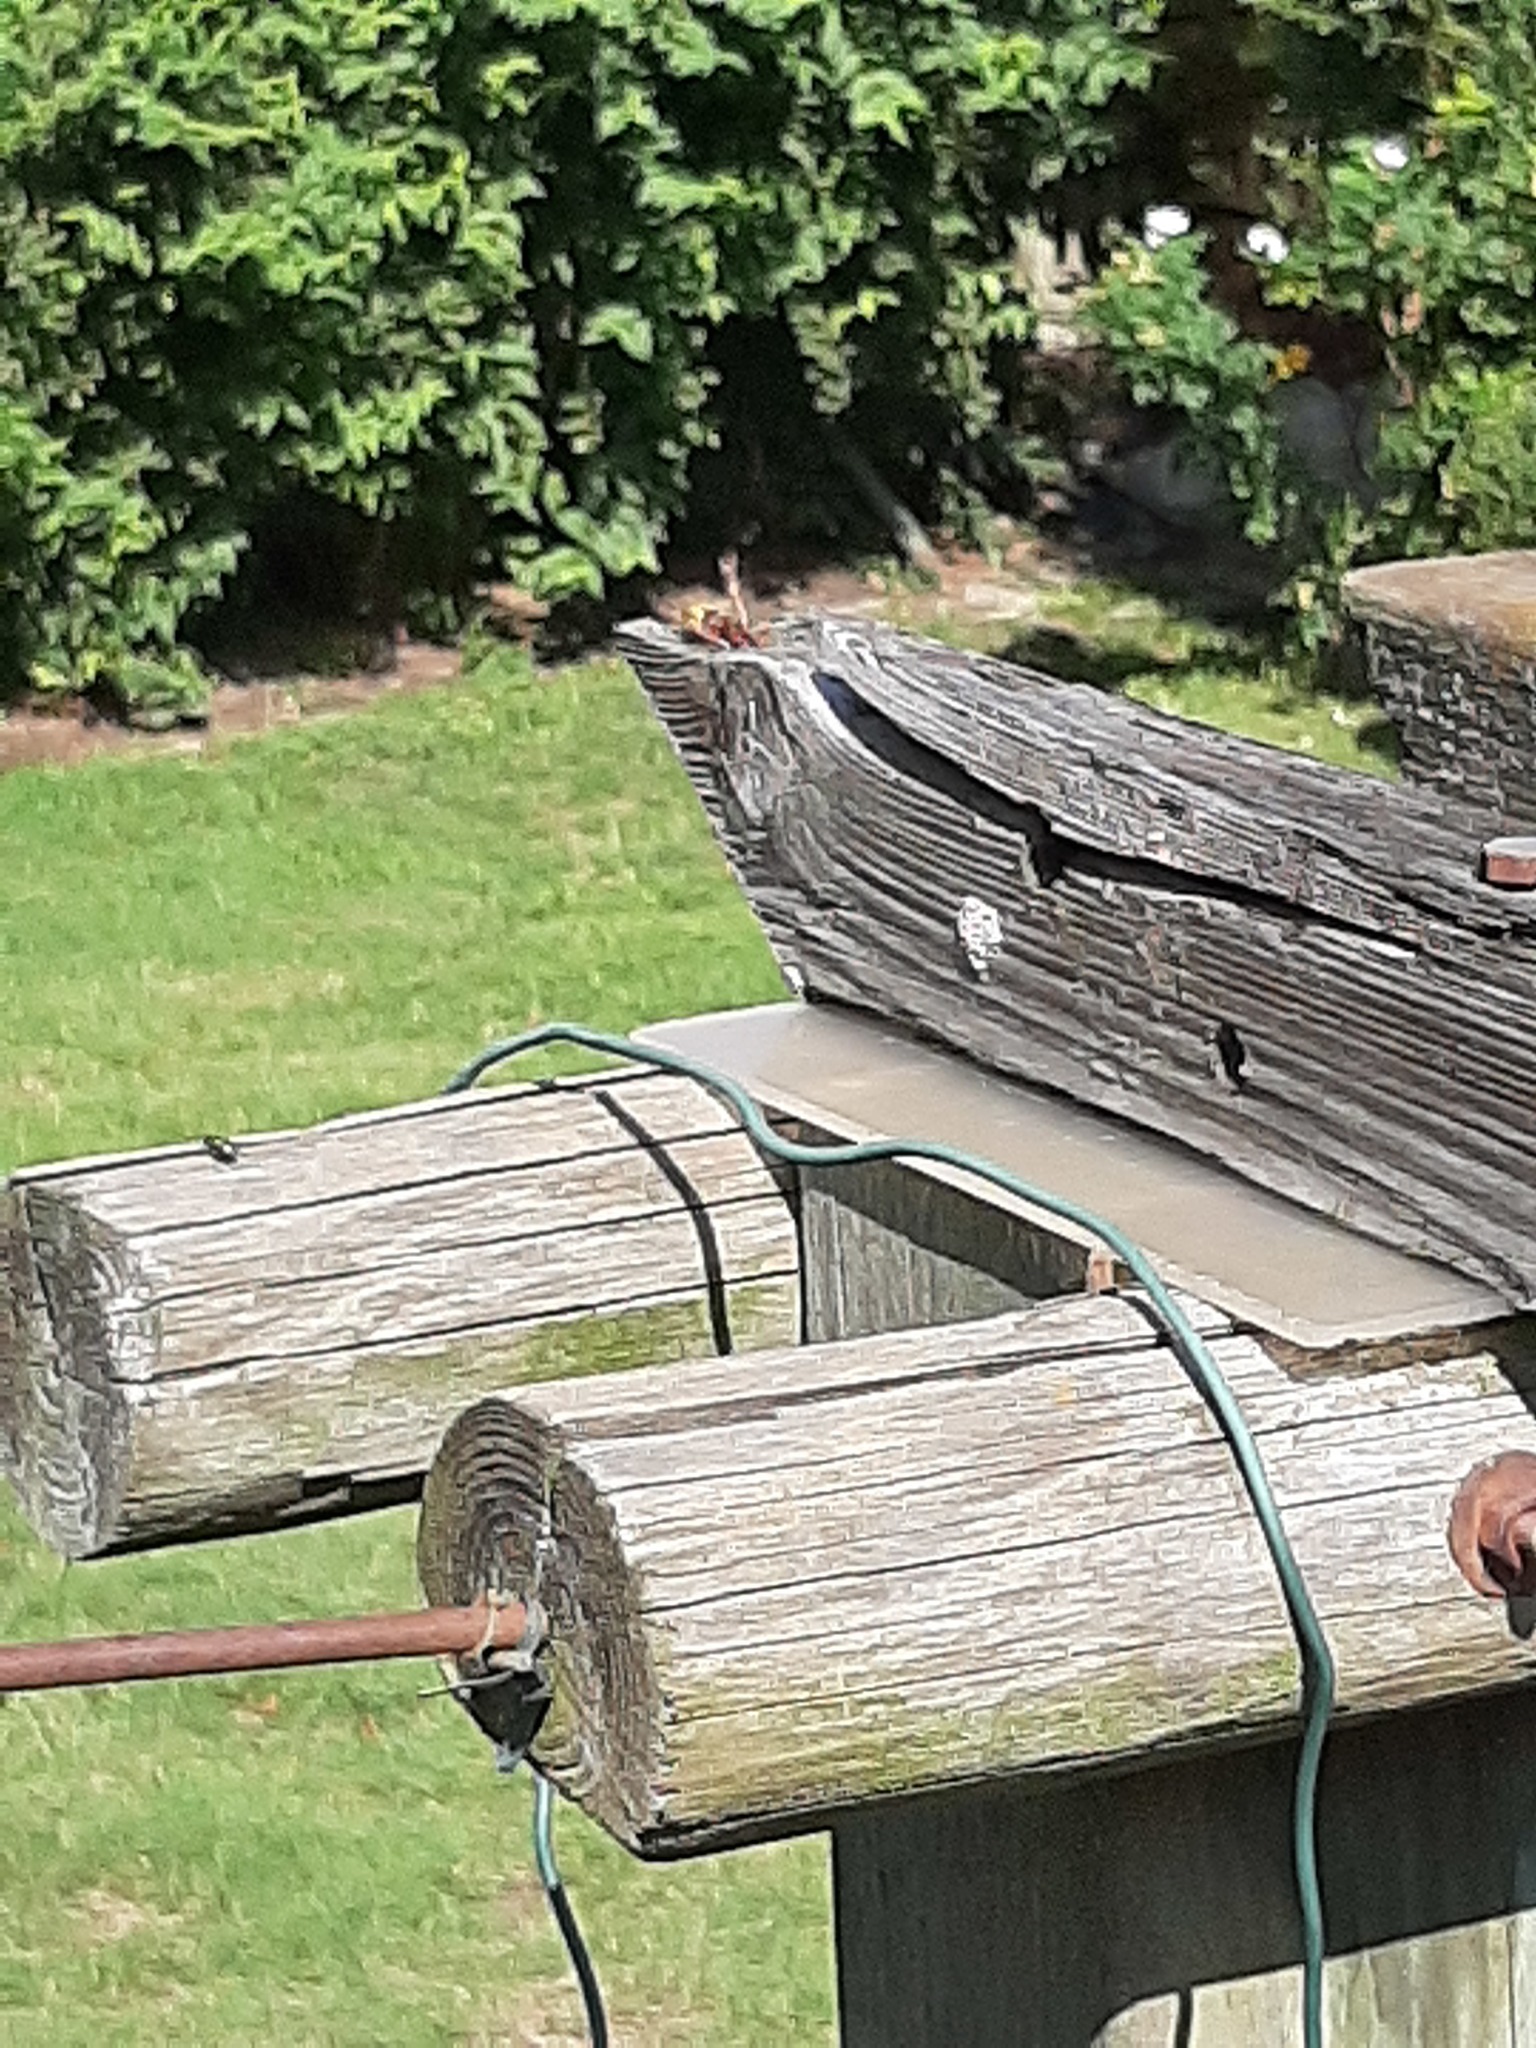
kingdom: Animalia
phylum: Arthropoda
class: Insecta
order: Hymenoptera
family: Vespidae
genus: Vespa
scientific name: Vespa crabro
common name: Hornet
